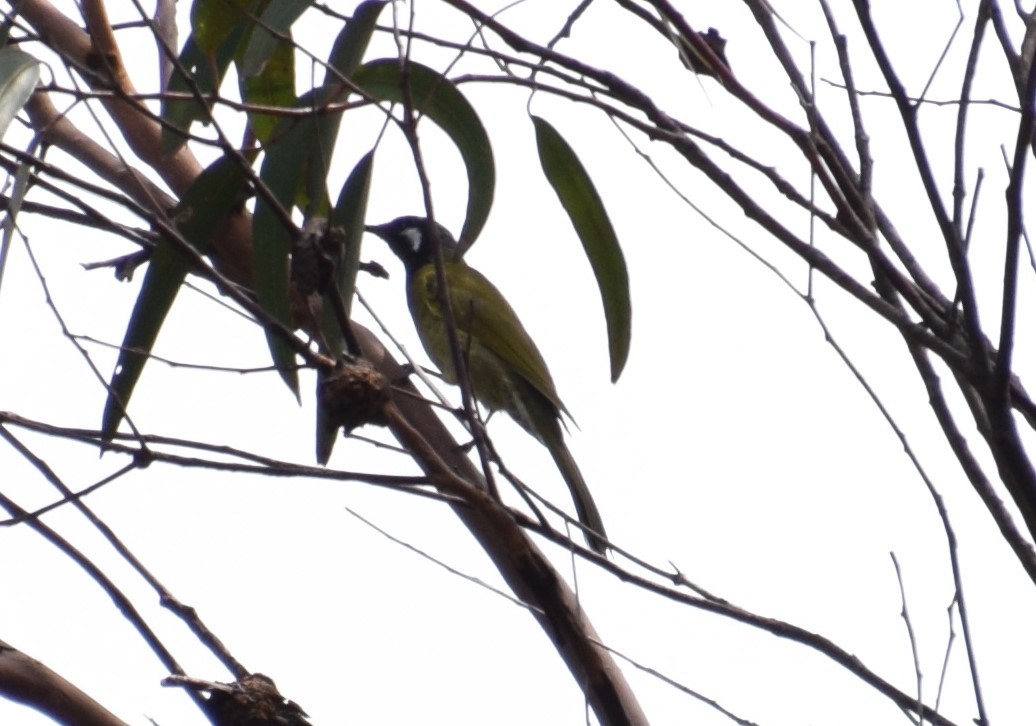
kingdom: Animalia
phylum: Chordata
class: Aves
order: Passeriformes
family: Meliphagidae
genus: Nesoptilotis
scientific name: Nesoptilotis leucotis
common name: White-eared honeyeater
